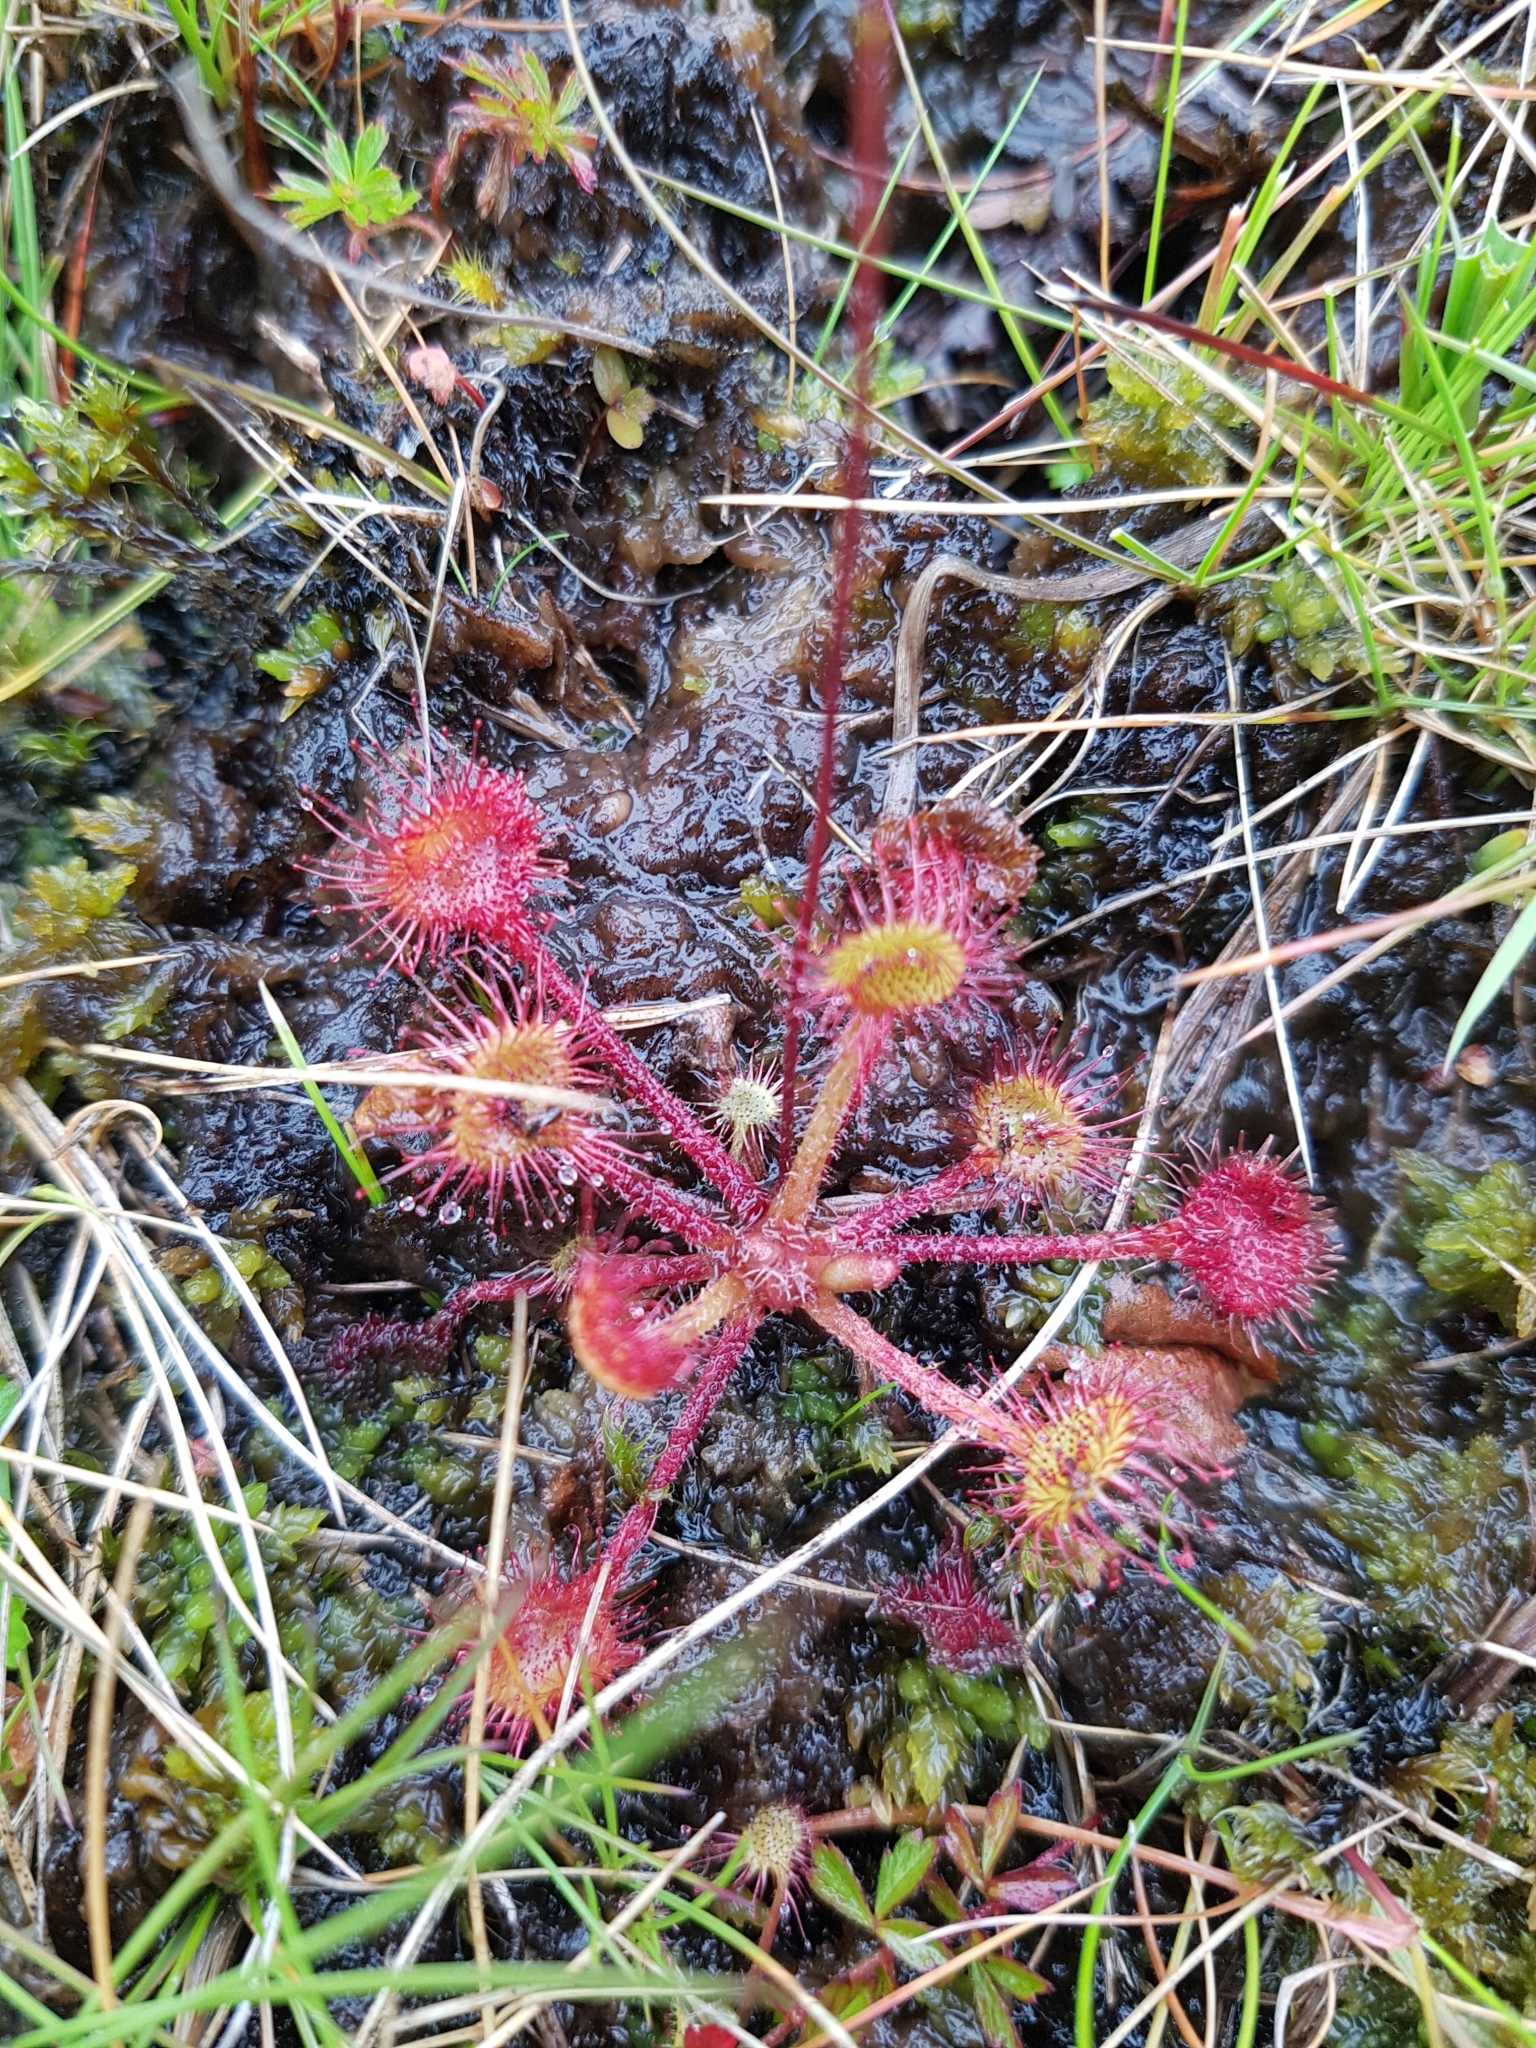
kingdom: Plantae
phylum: Tracheophyta
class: Magnoliopsida
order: Caryophyllales
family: Droseraceae
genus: Drosera
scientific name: Drosera rotundifolia
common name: Round-leaved sundew
